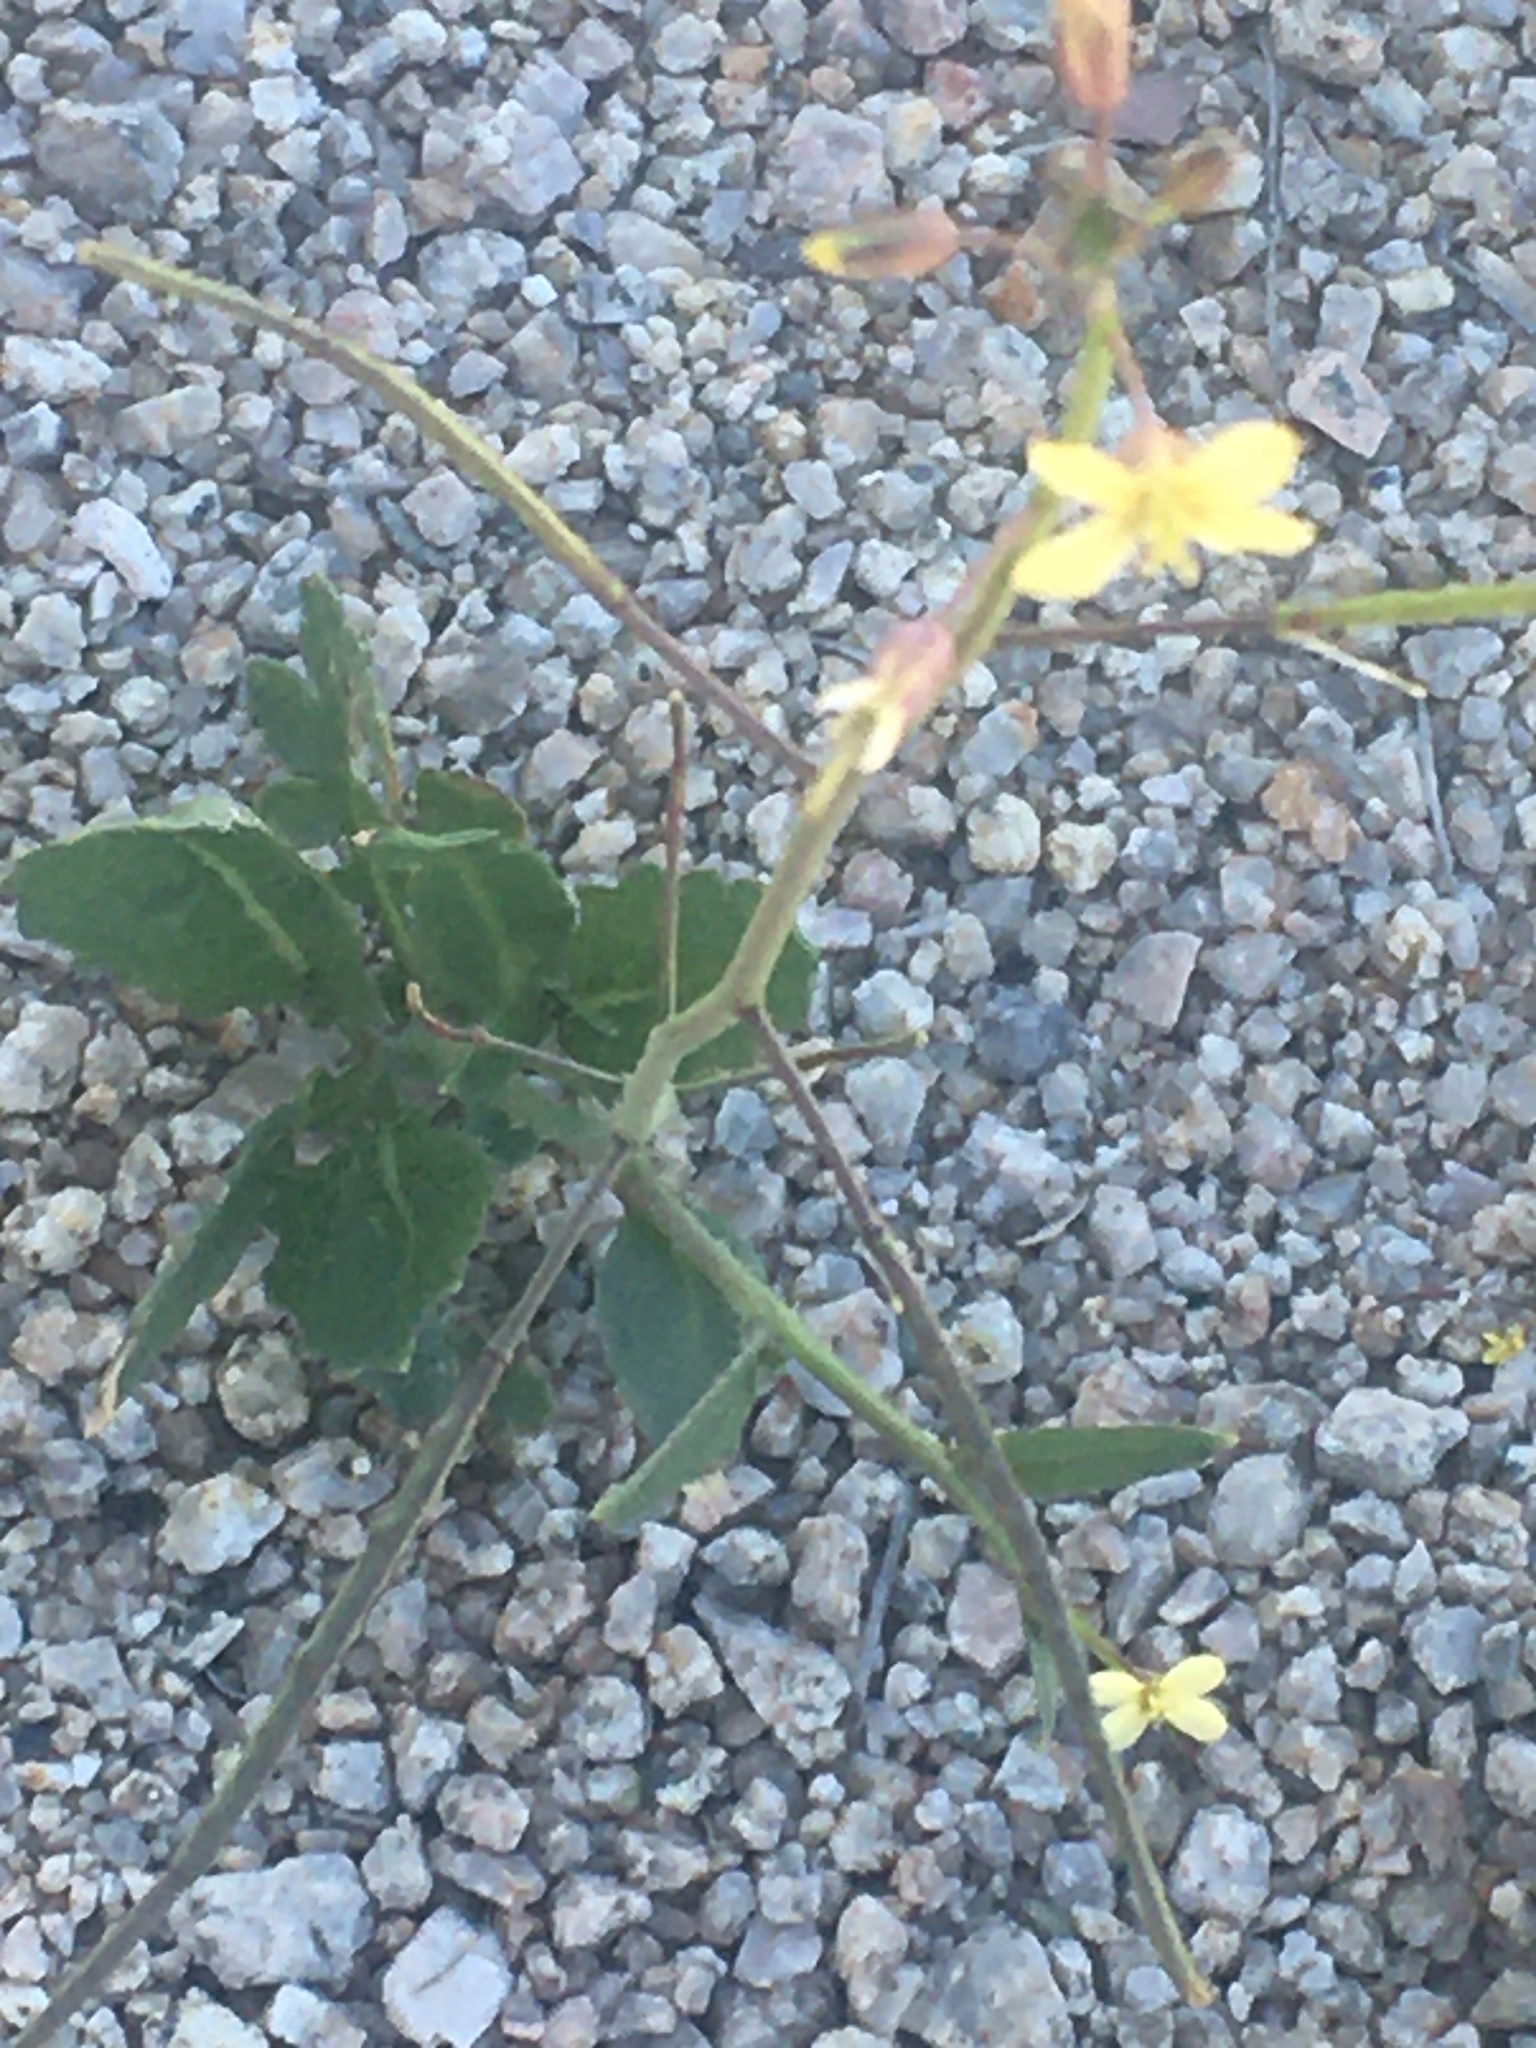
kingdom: Plantae
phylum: Tracheophyta
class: Magnoliopsida
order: Brassicales
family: Brassicaceae
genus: Brassica
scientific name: Brassica tournefortii
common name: Pale cabbage
